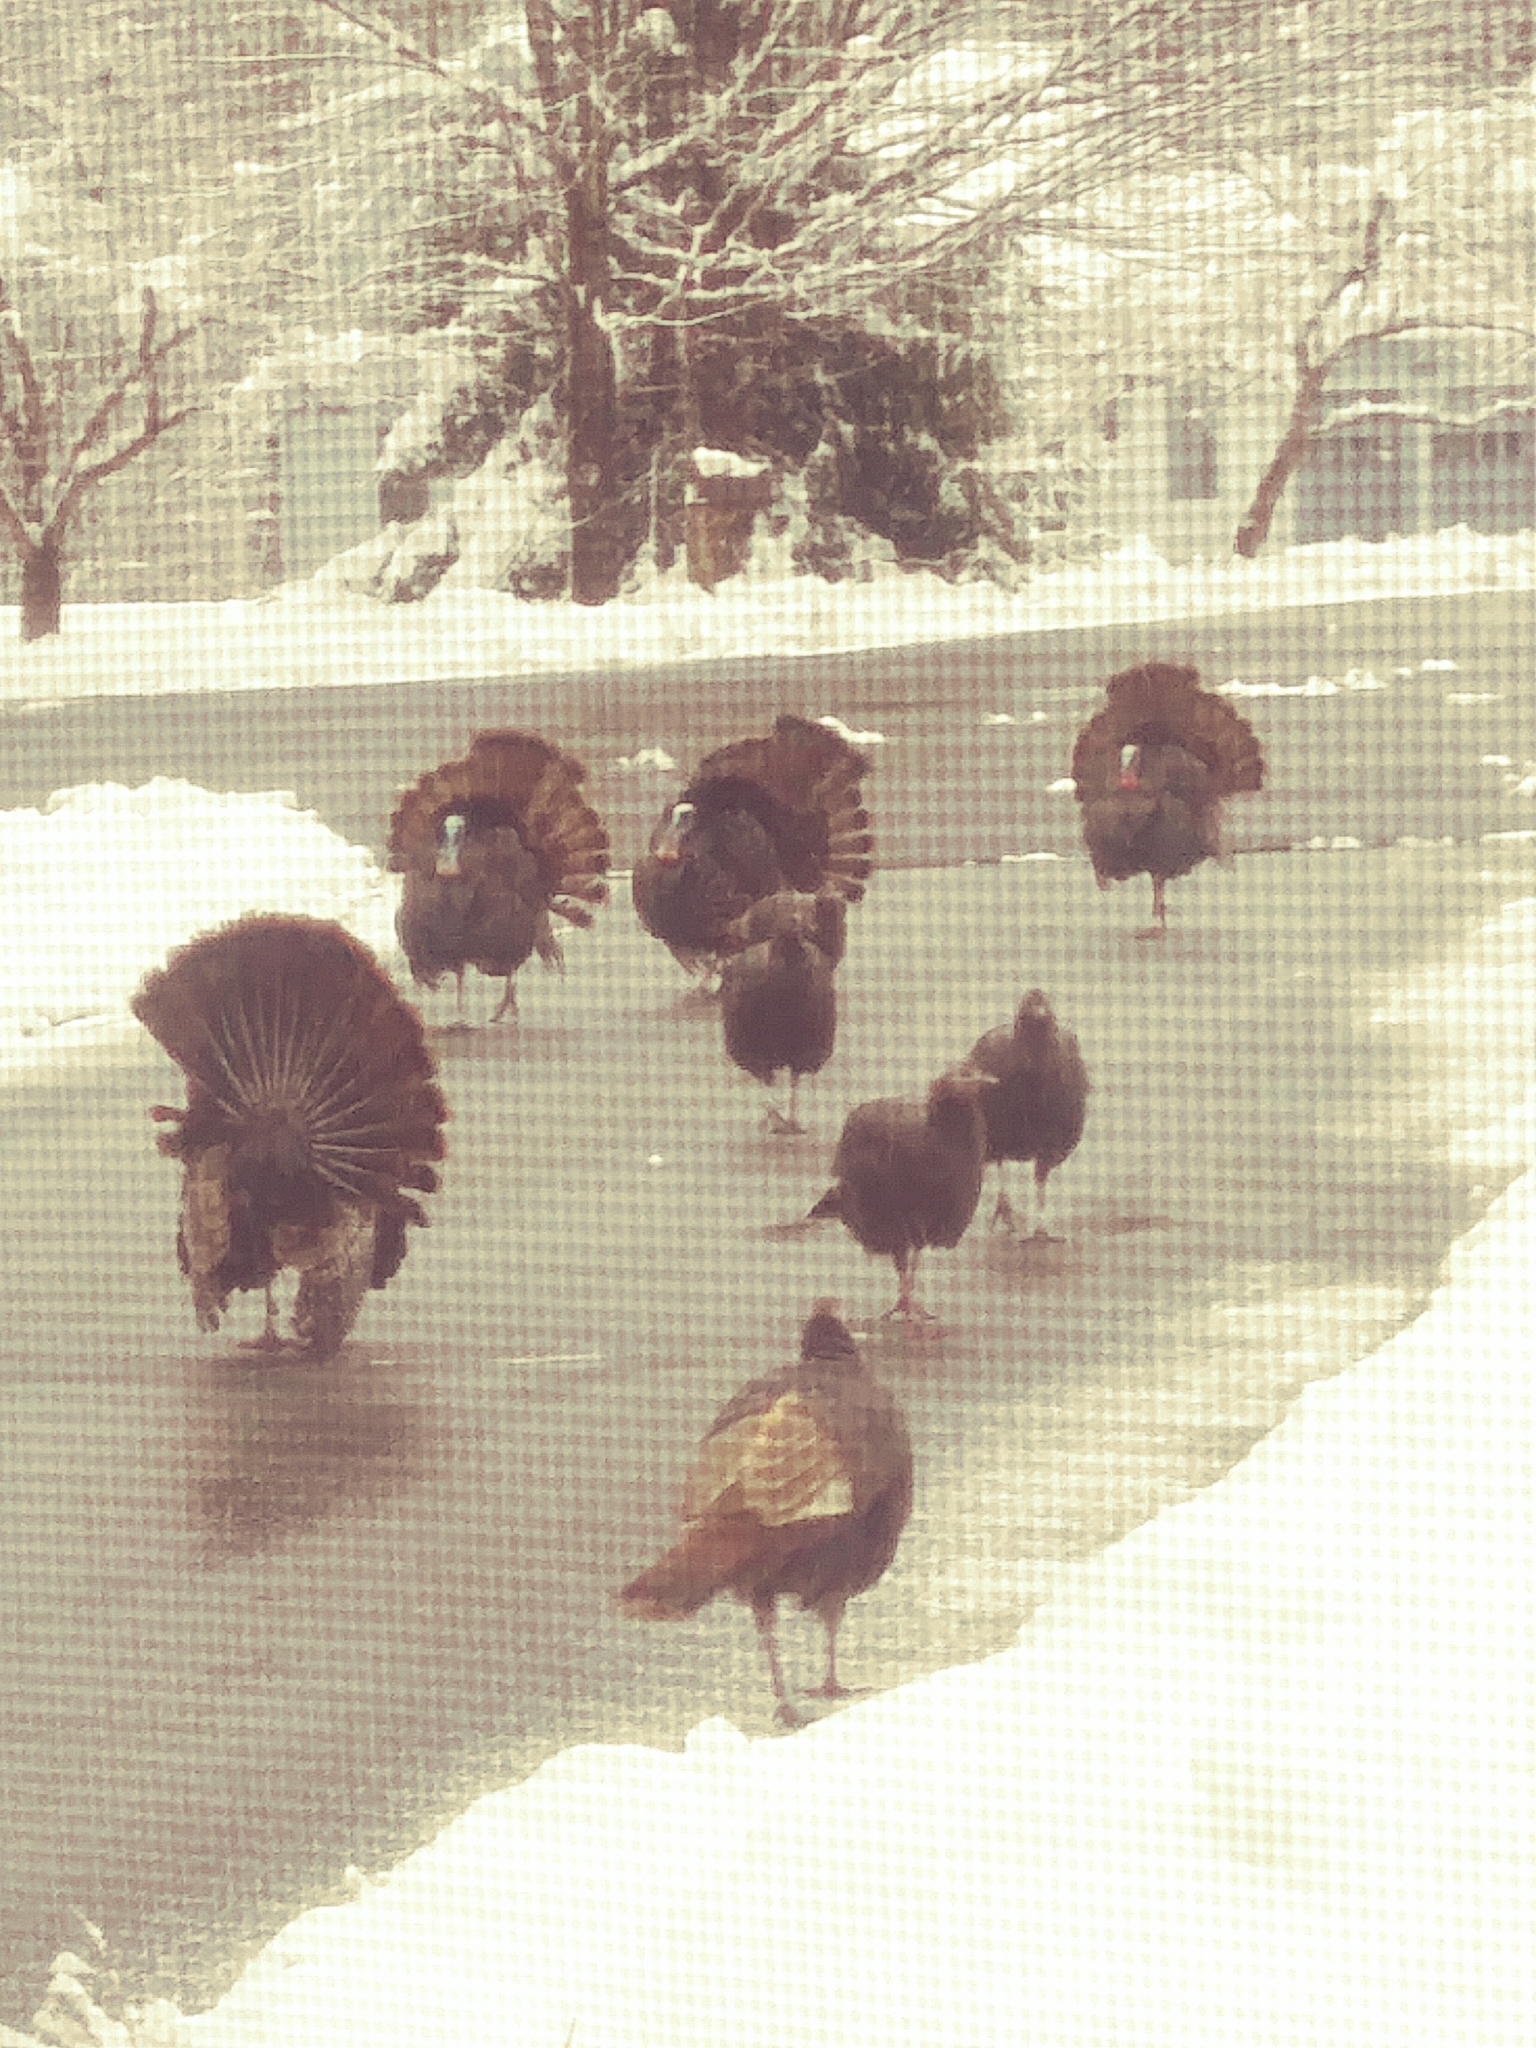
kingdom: Animalia
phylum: Chordata
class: Aves
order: Galliformes
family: Phasianidae
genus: Meleagris
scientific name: Meleagris gallopavo
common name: Wild turkey
